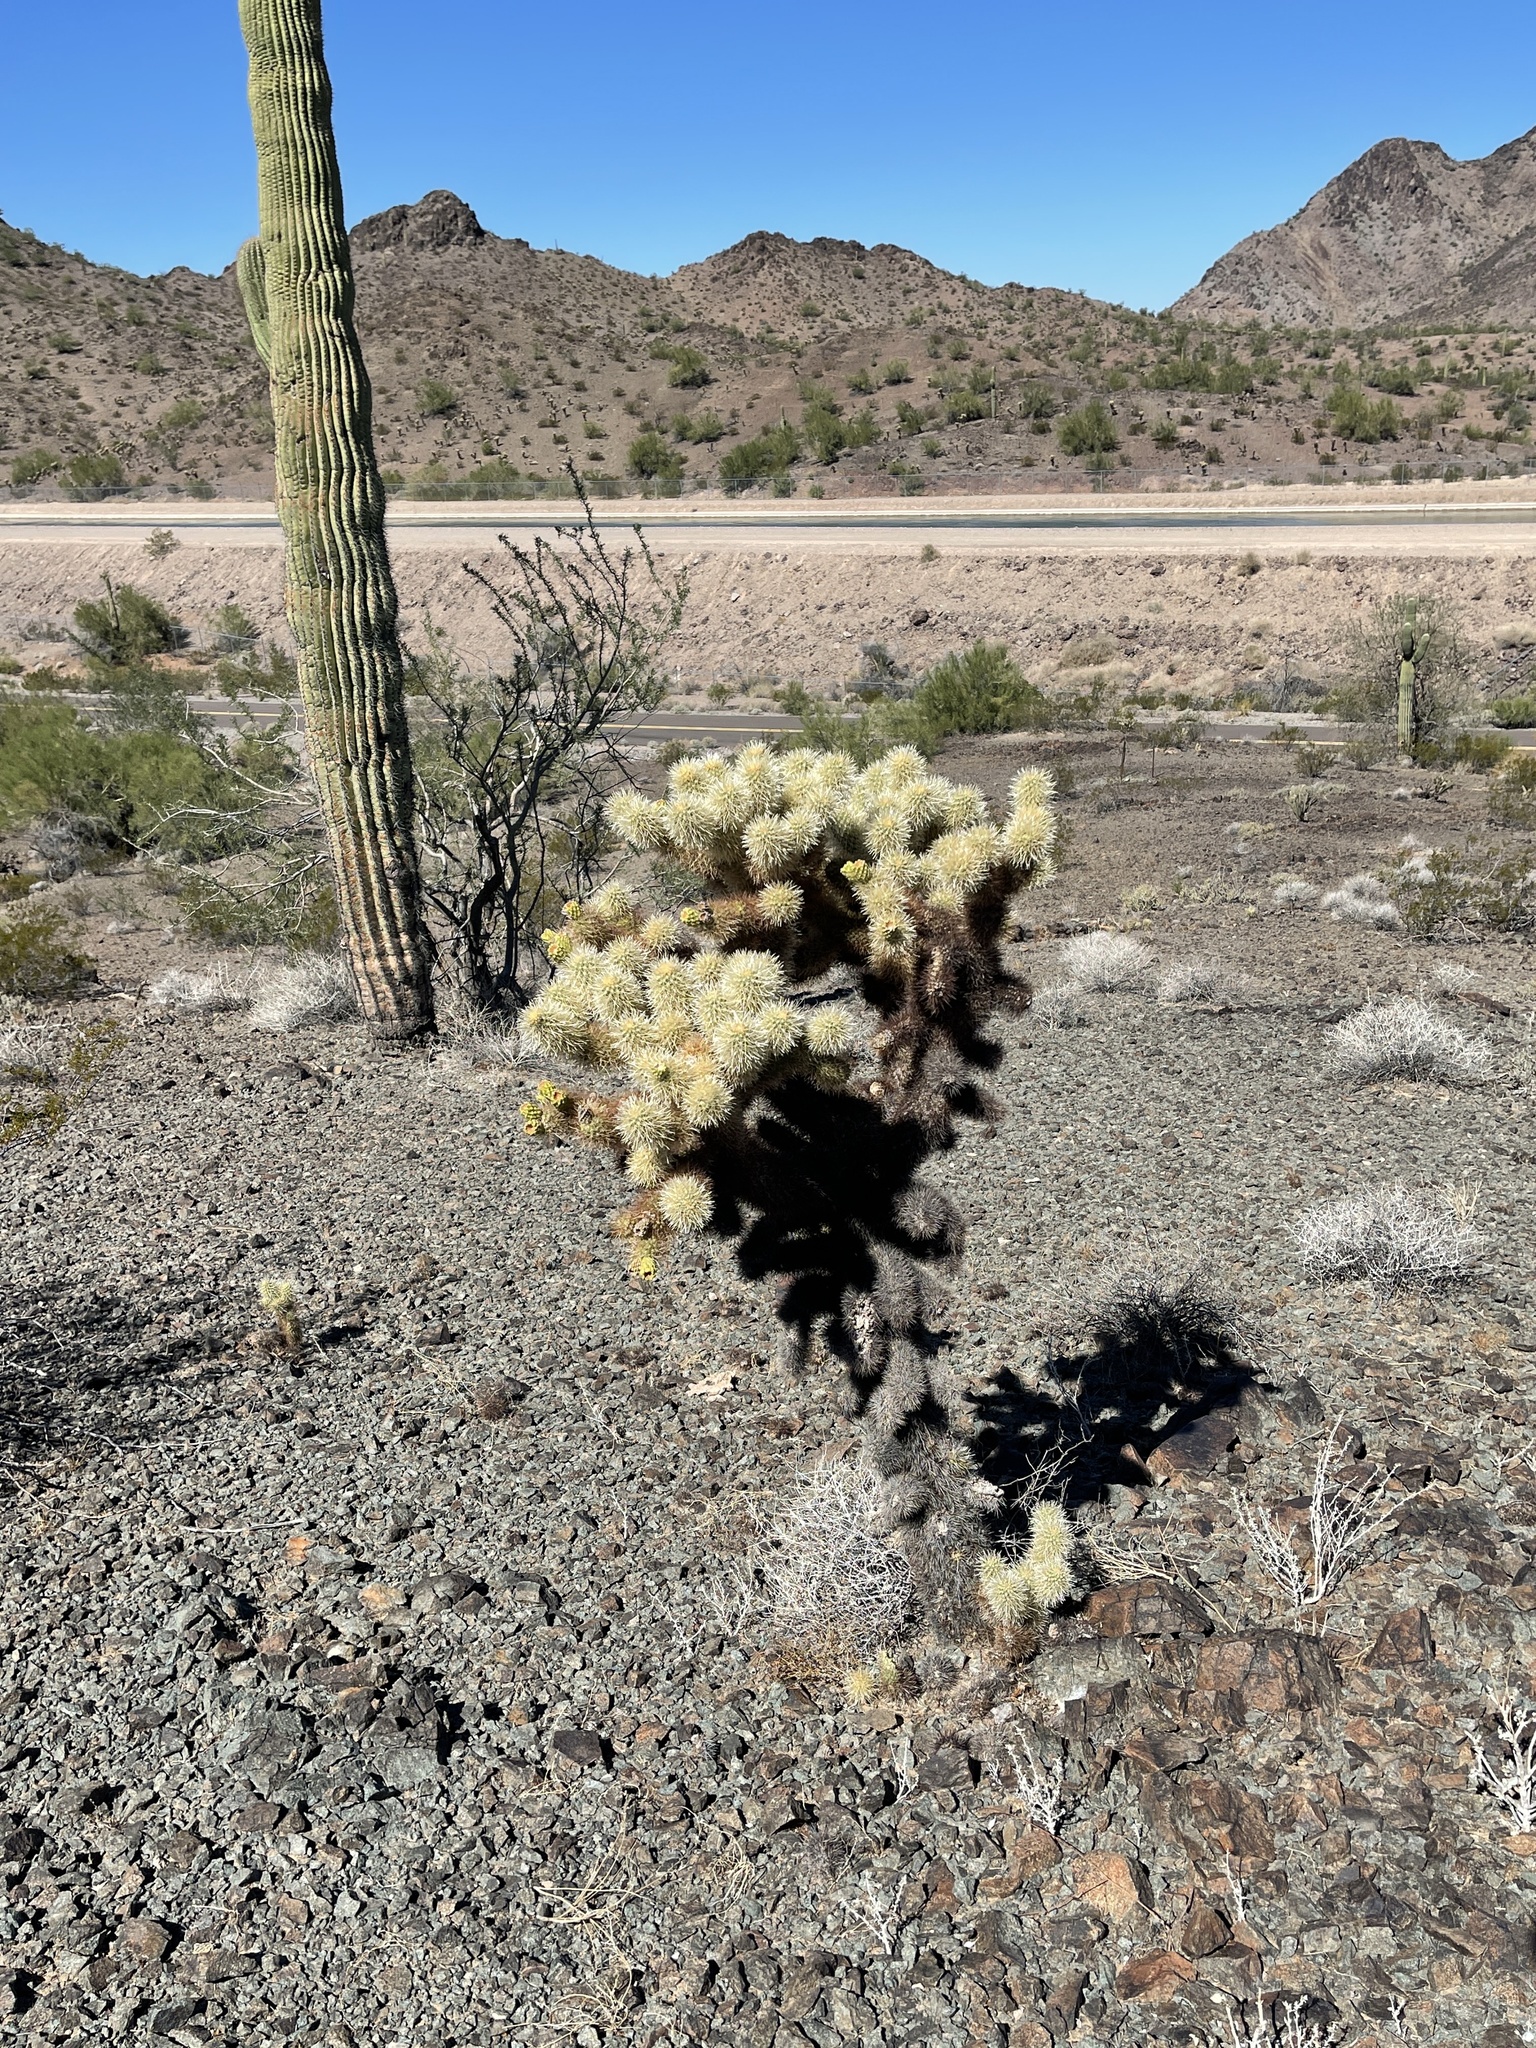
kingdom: Plantae
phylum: Tracheophyta
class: Magnoliopsida
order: Caryophyllales
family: Cactaceae
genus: Cylindropuntia
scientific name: Cylindropuntia fosbergii
